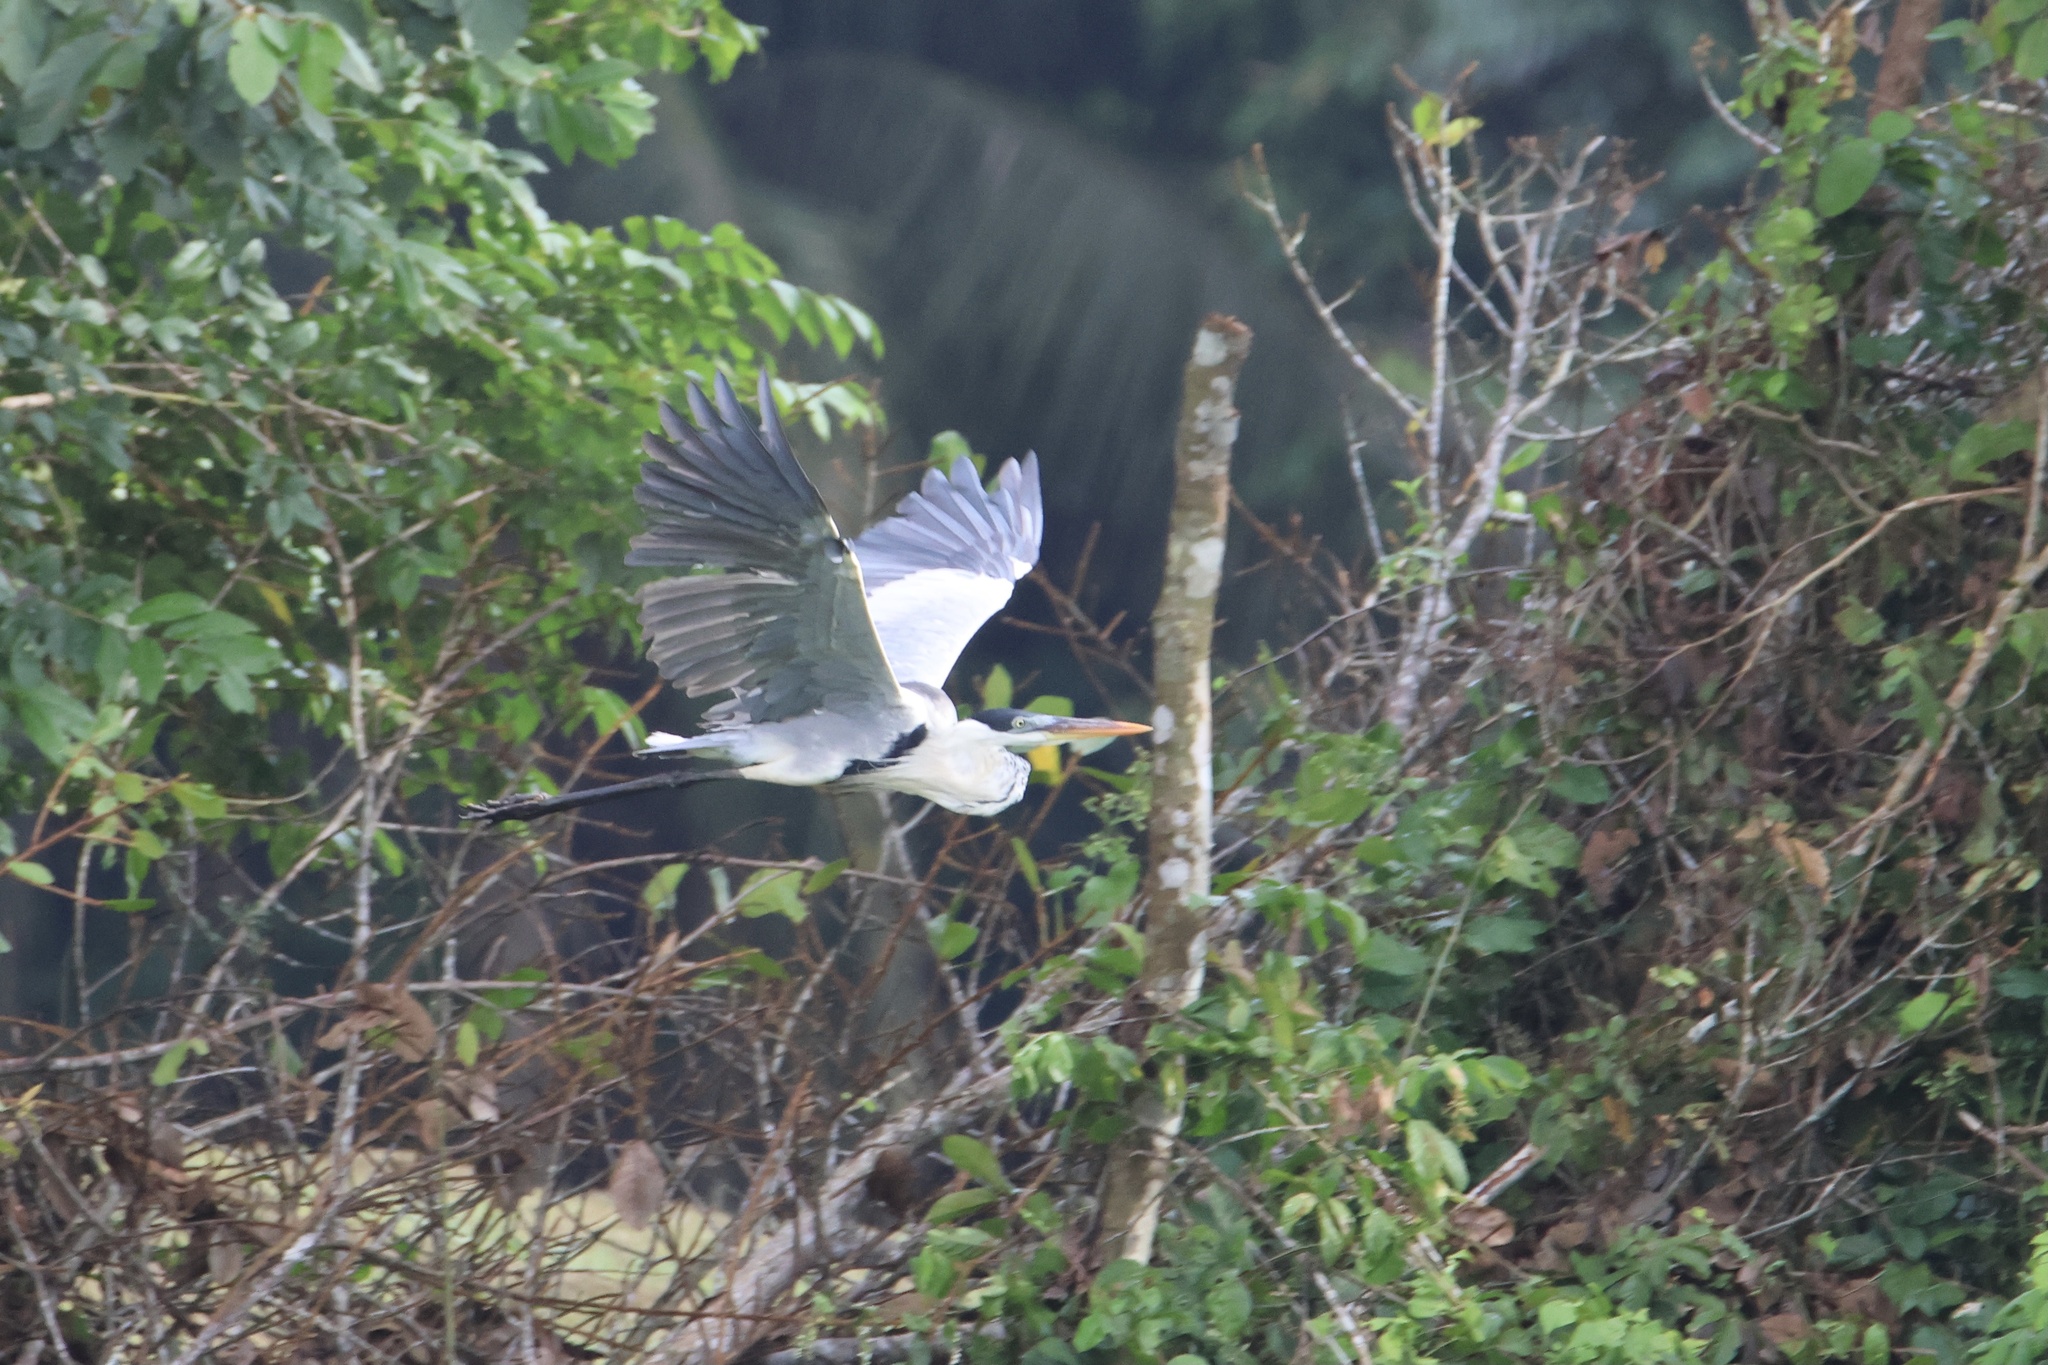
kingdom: Animalia
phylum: Chordata
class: Aves
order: Pelecaniformes
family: Ardeidae
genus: Ardea
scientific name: Ardea cocoi
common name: Cocoi heron
